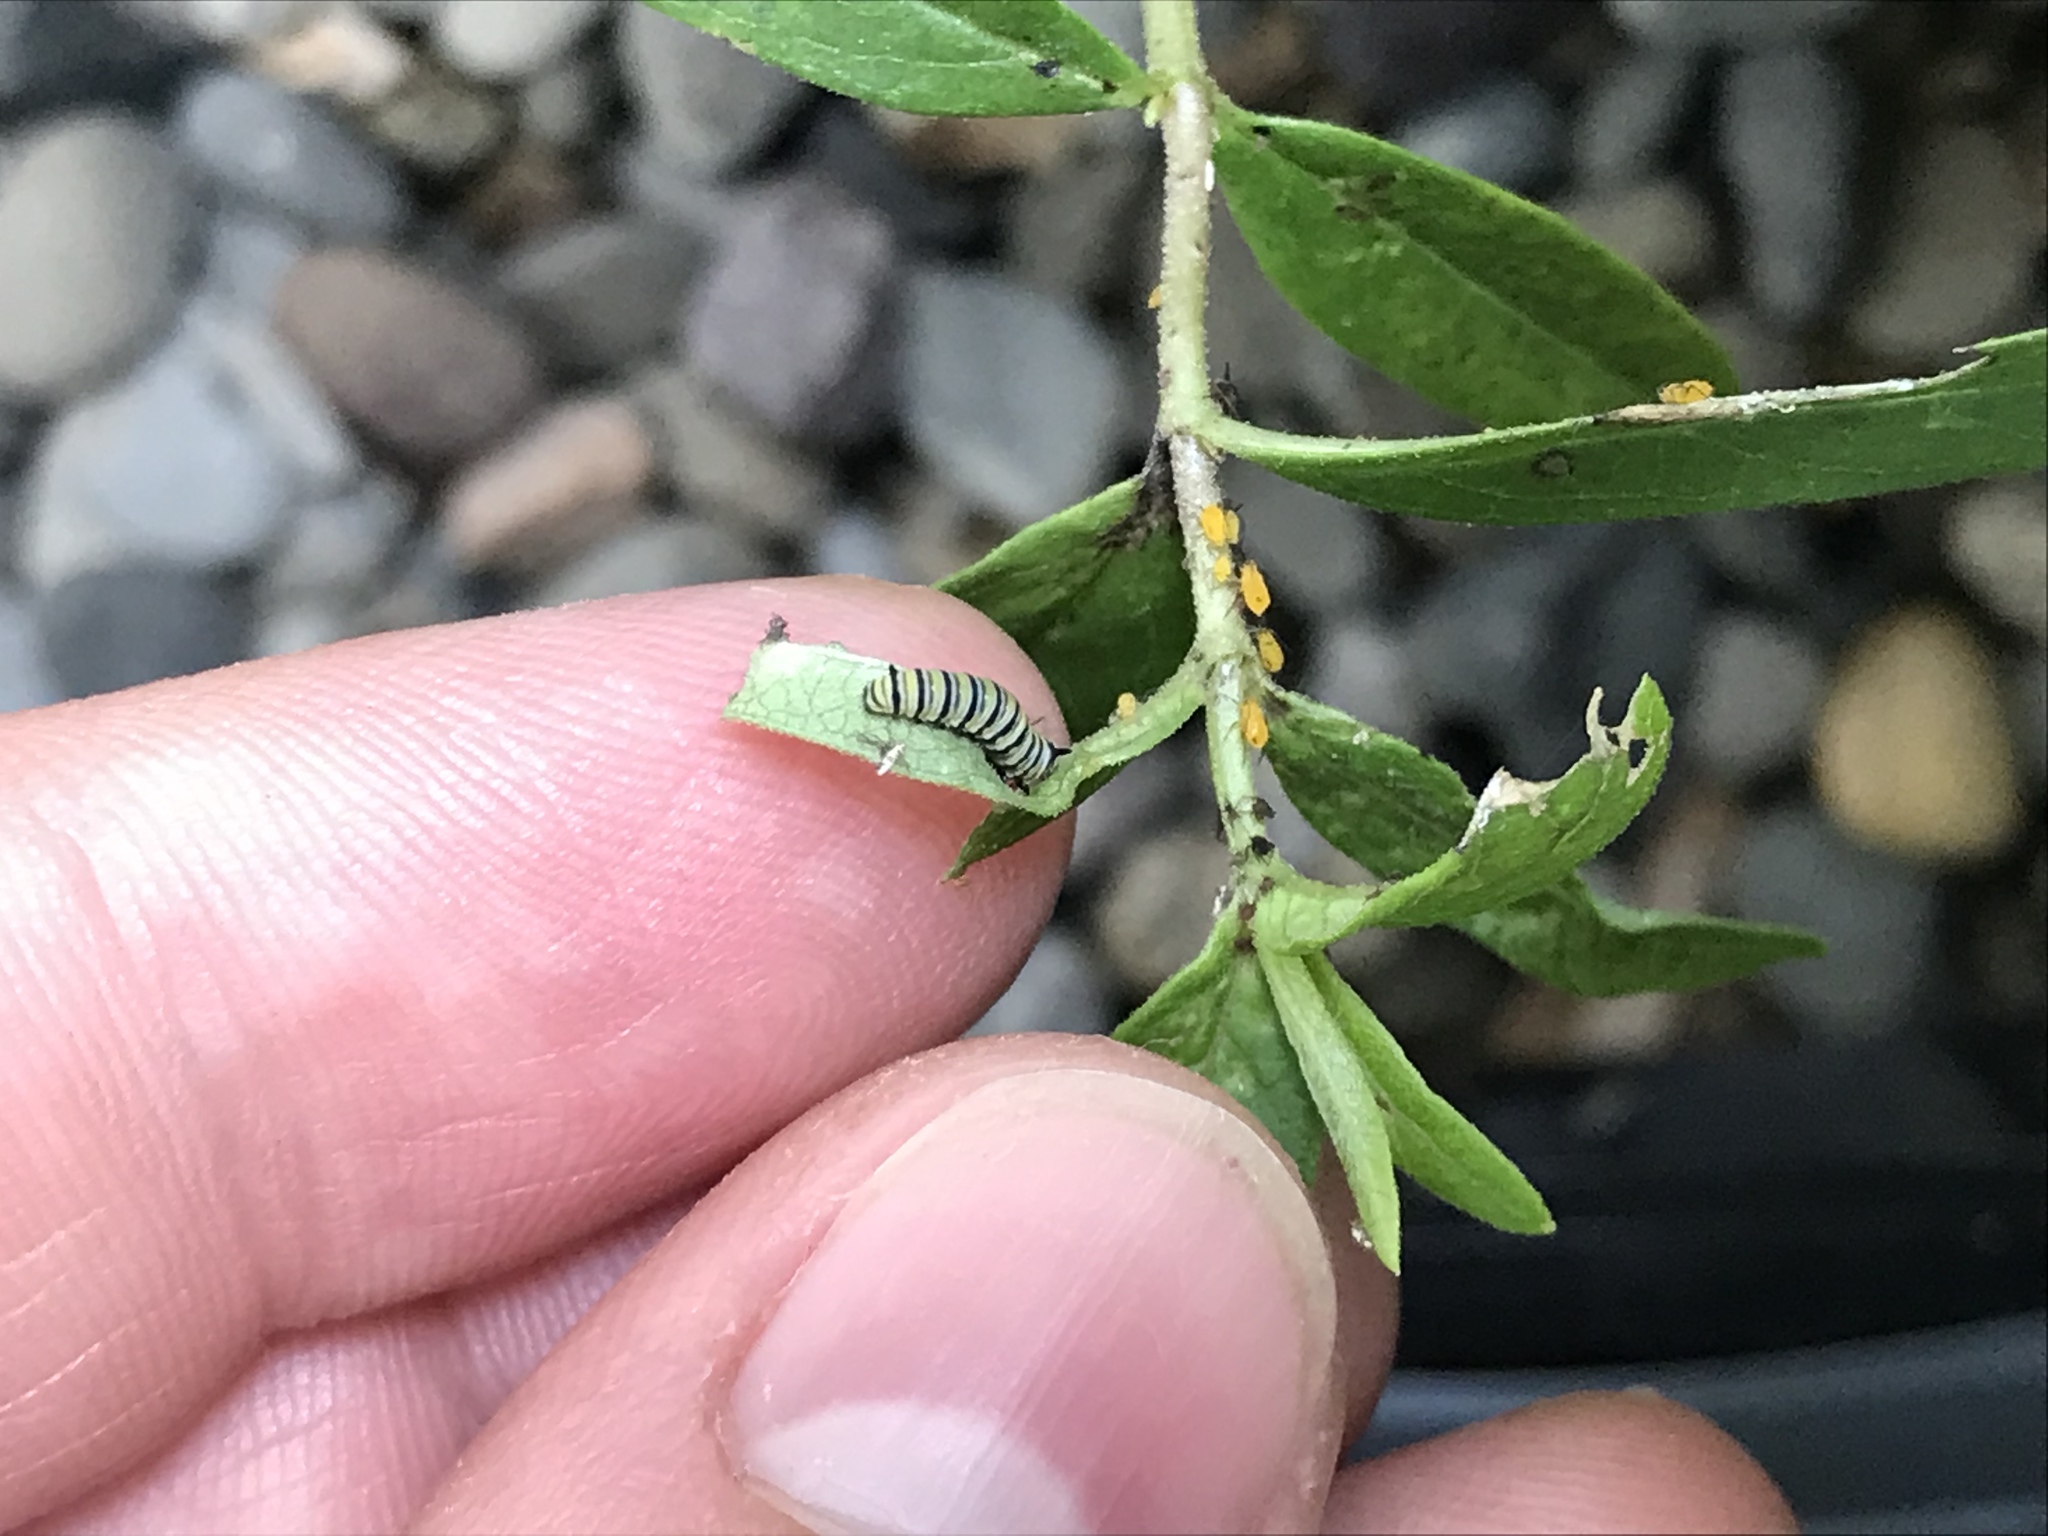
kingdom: Animalia
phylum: Arthropoda
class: Insecta
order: Lepidoptera
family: Nymphalidae
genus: Danaus
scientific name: Danaus plexippus
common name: Monarch
